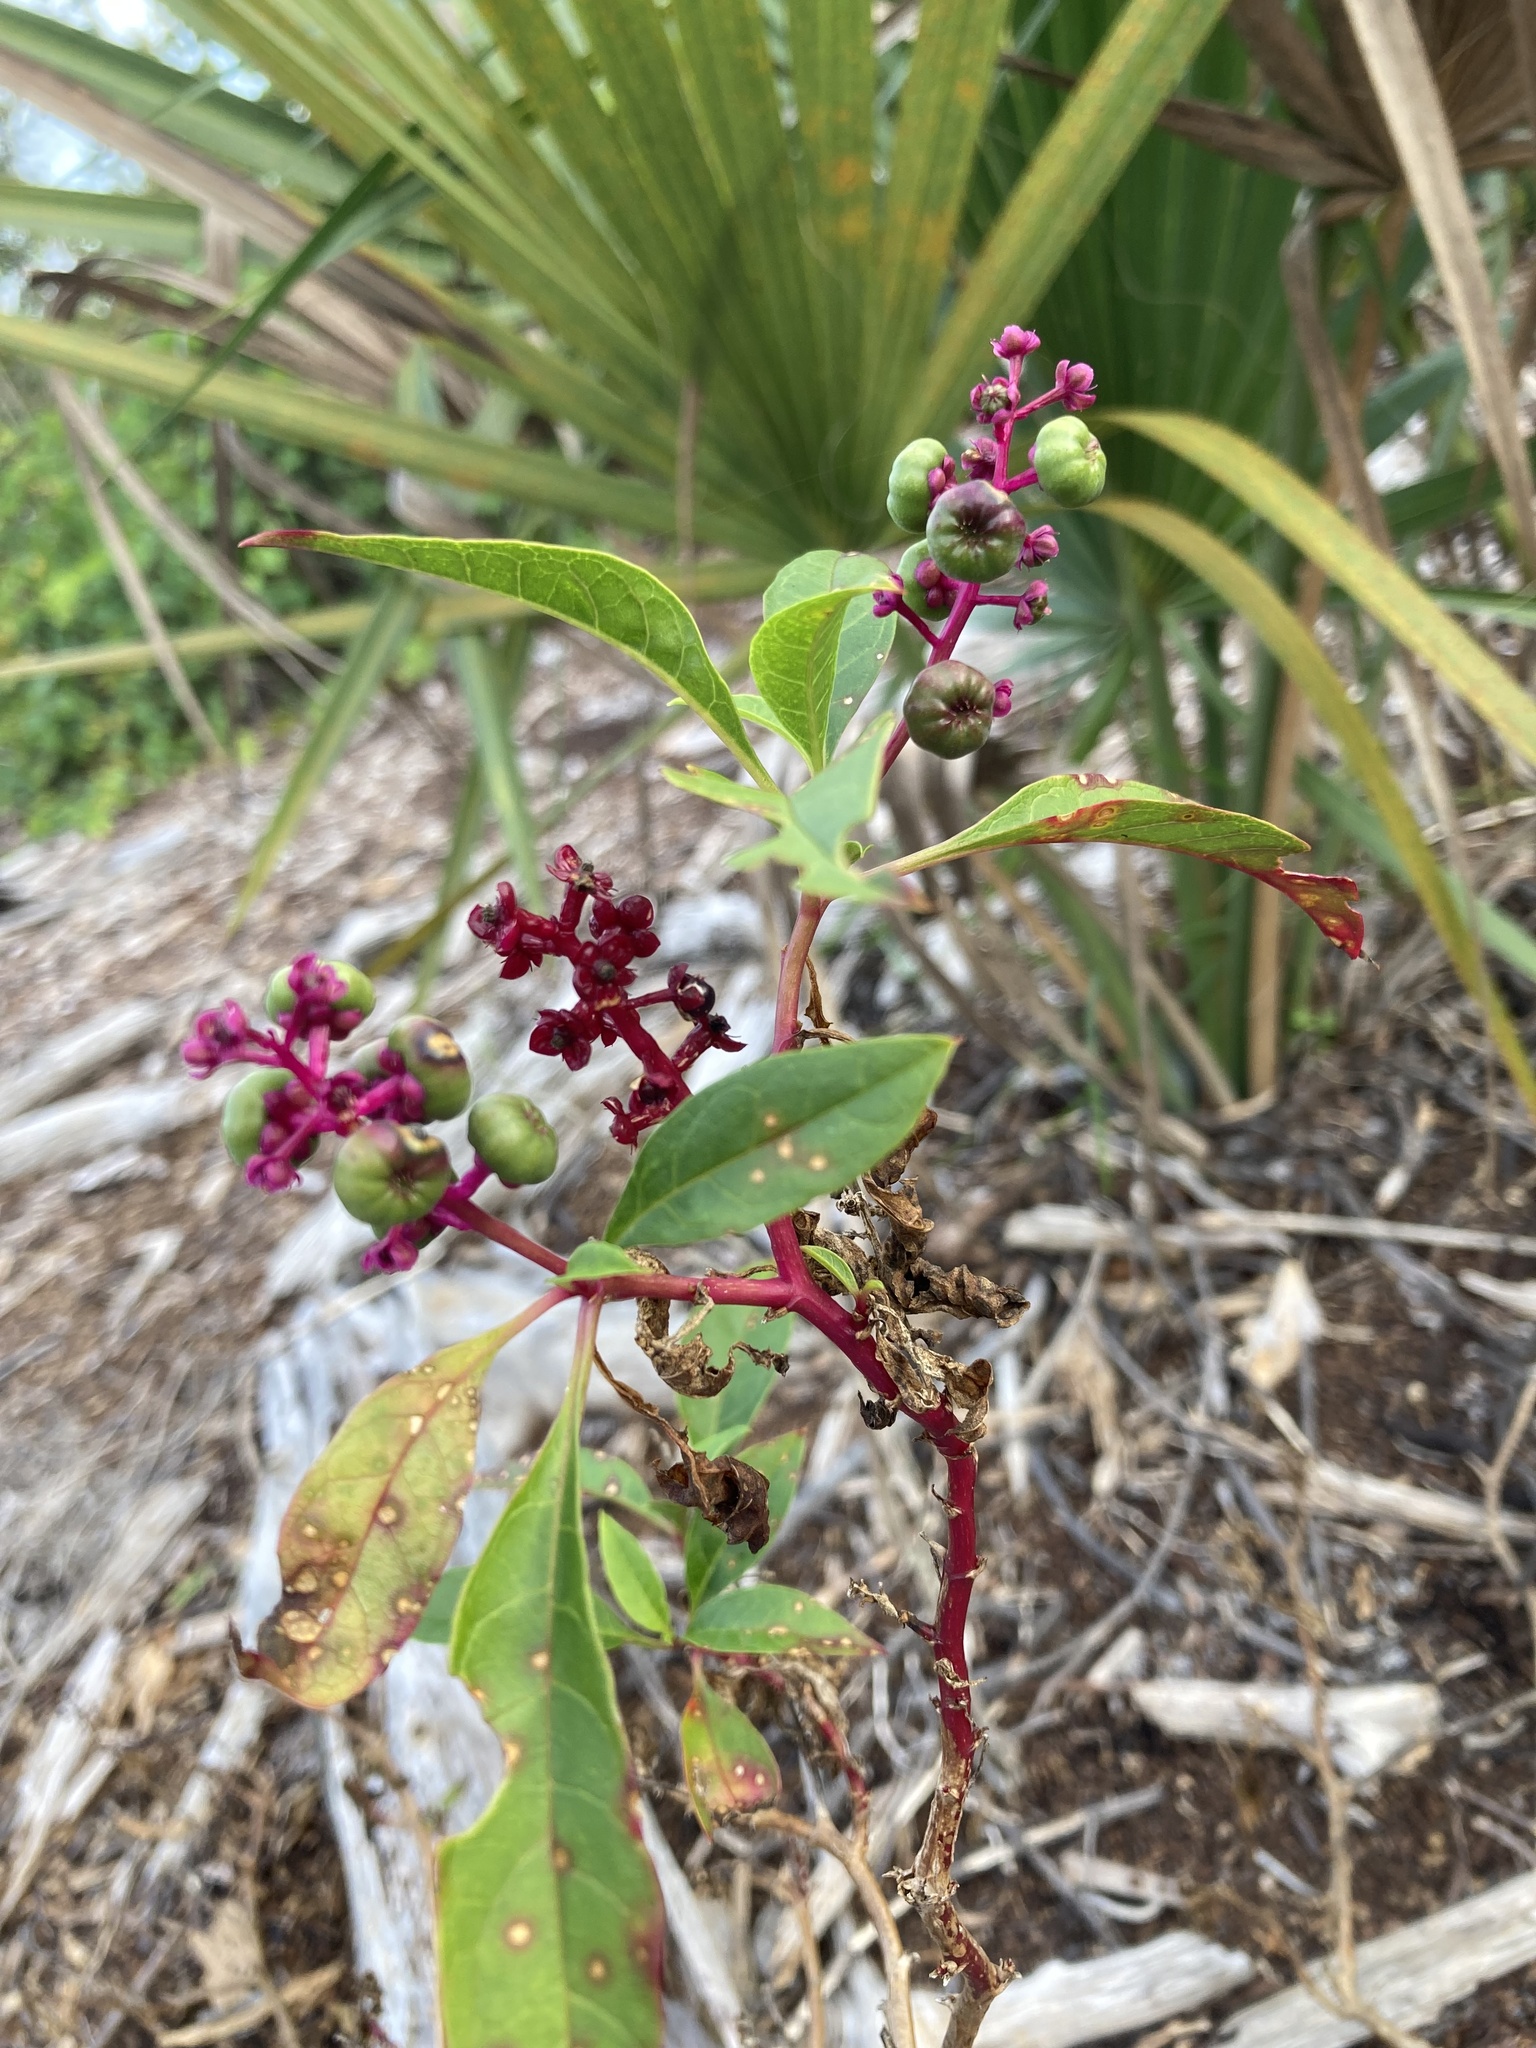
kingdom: Plantae
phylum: Tracheophyta
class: Magnoliopsida
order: Caryophyllales
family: Phytolaccaceae
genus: Phytolacca
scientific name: Phytolacca americana
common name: American pokeweed
